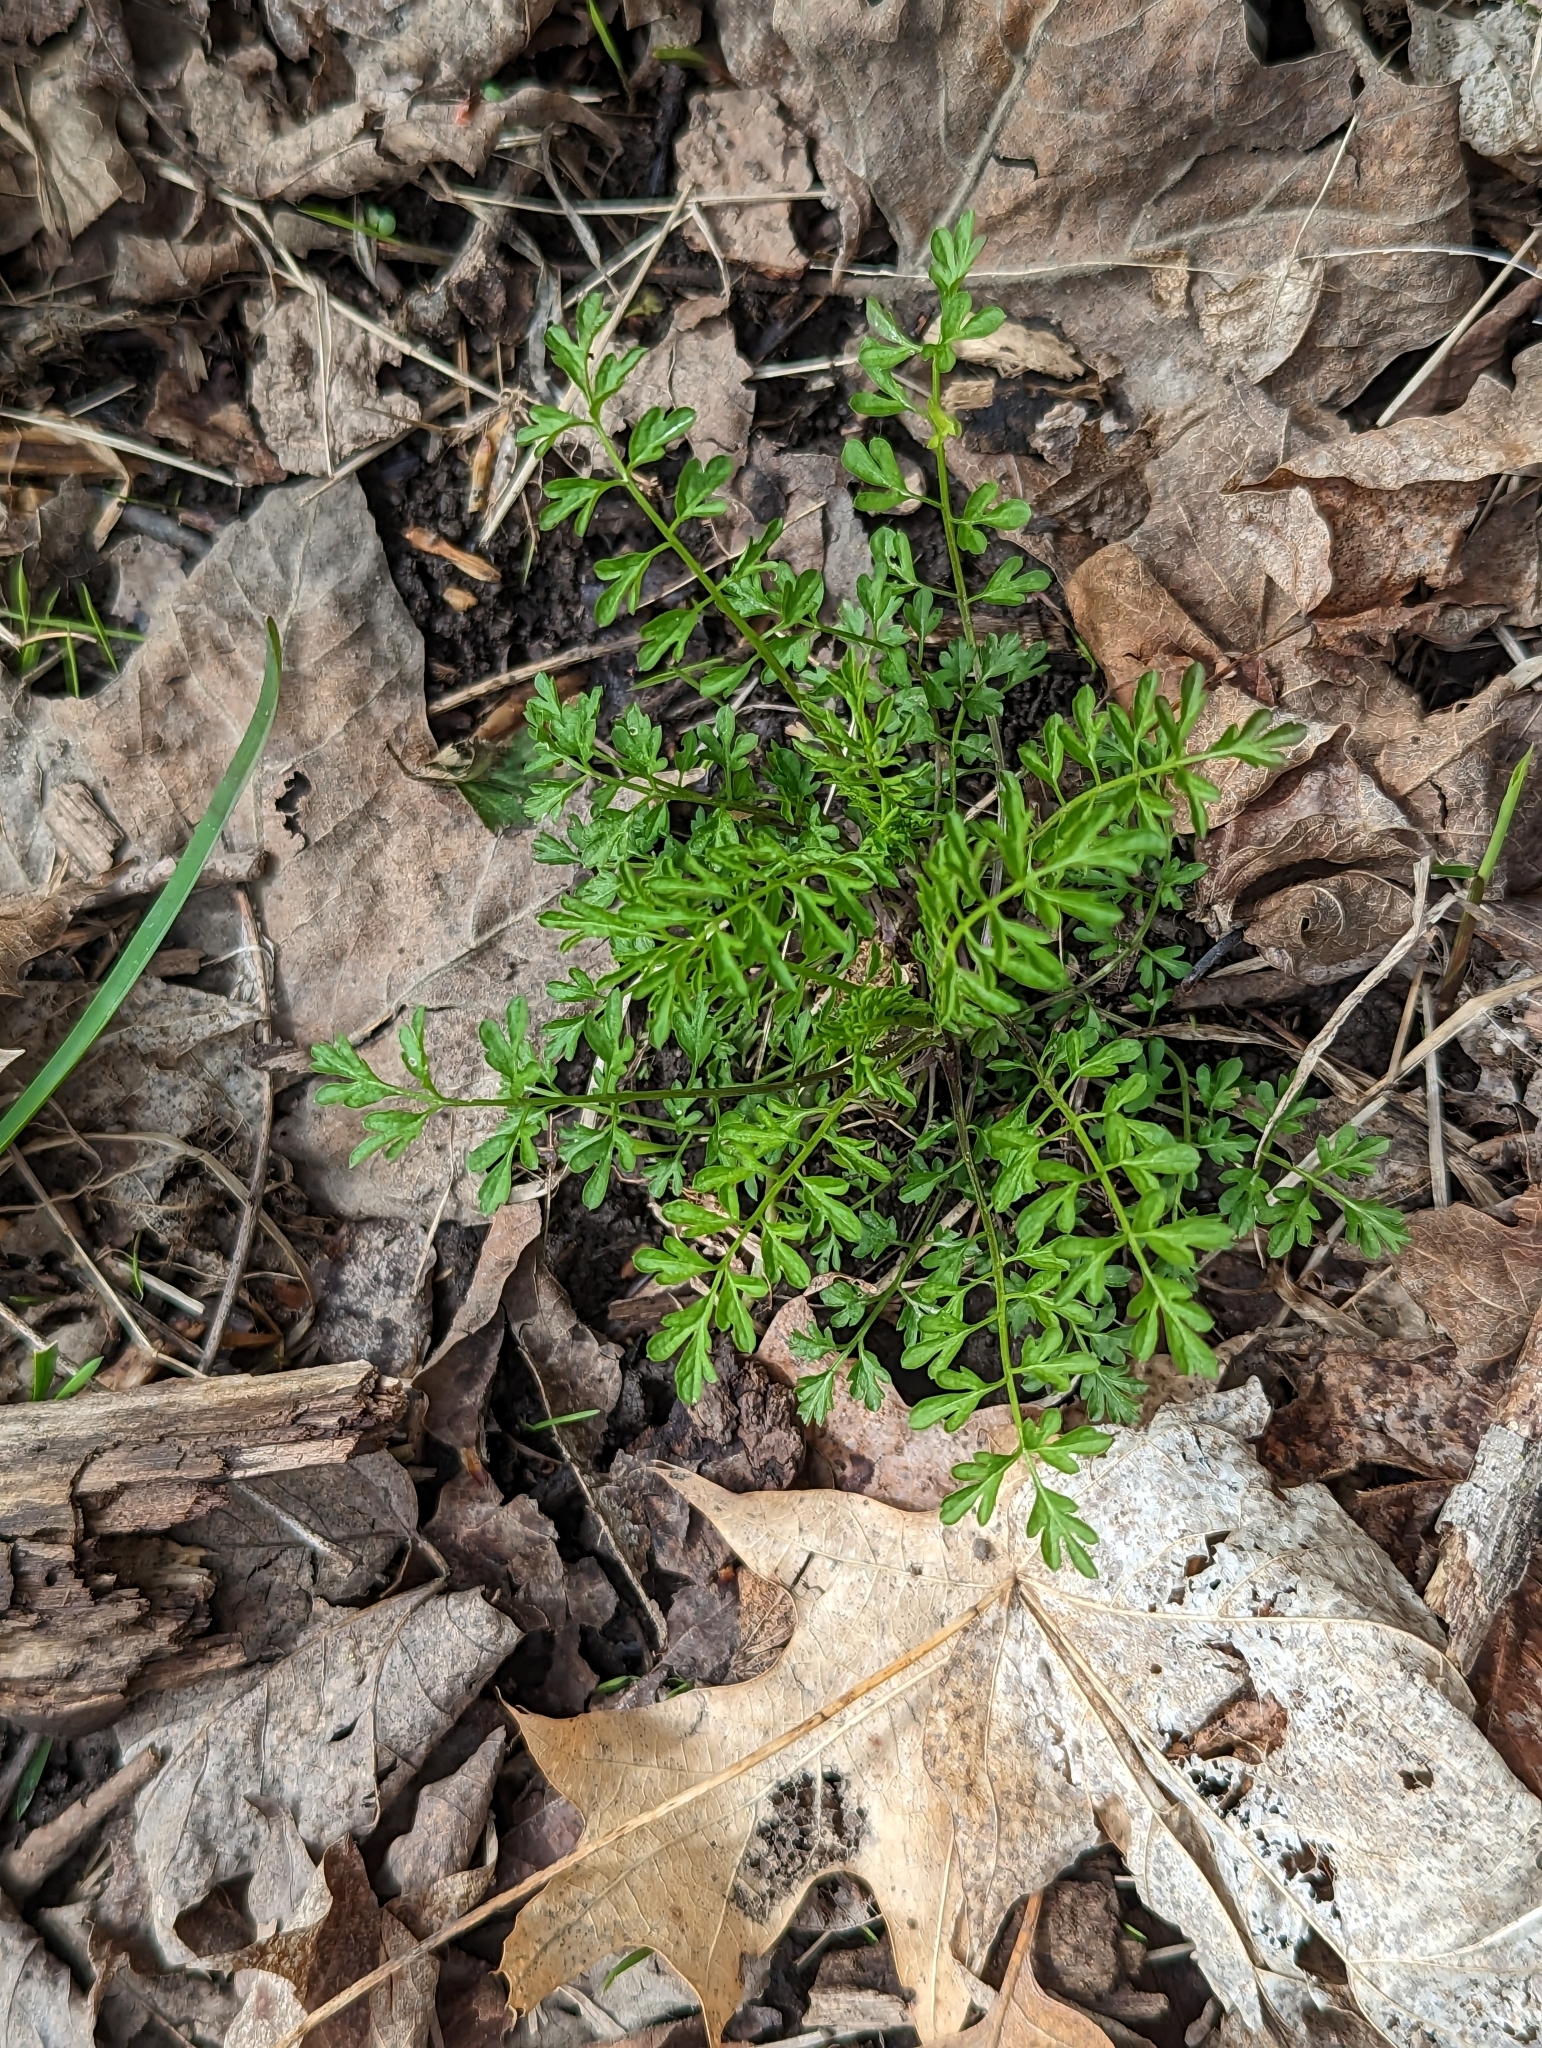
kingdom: Plantae
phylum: Tracheophyta
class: Magnoliopsida
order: Brassicales
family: Brassicaceae
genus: Cardamine
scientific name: Cardamine impatiens
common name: Narrow-leaved bitter-cress
